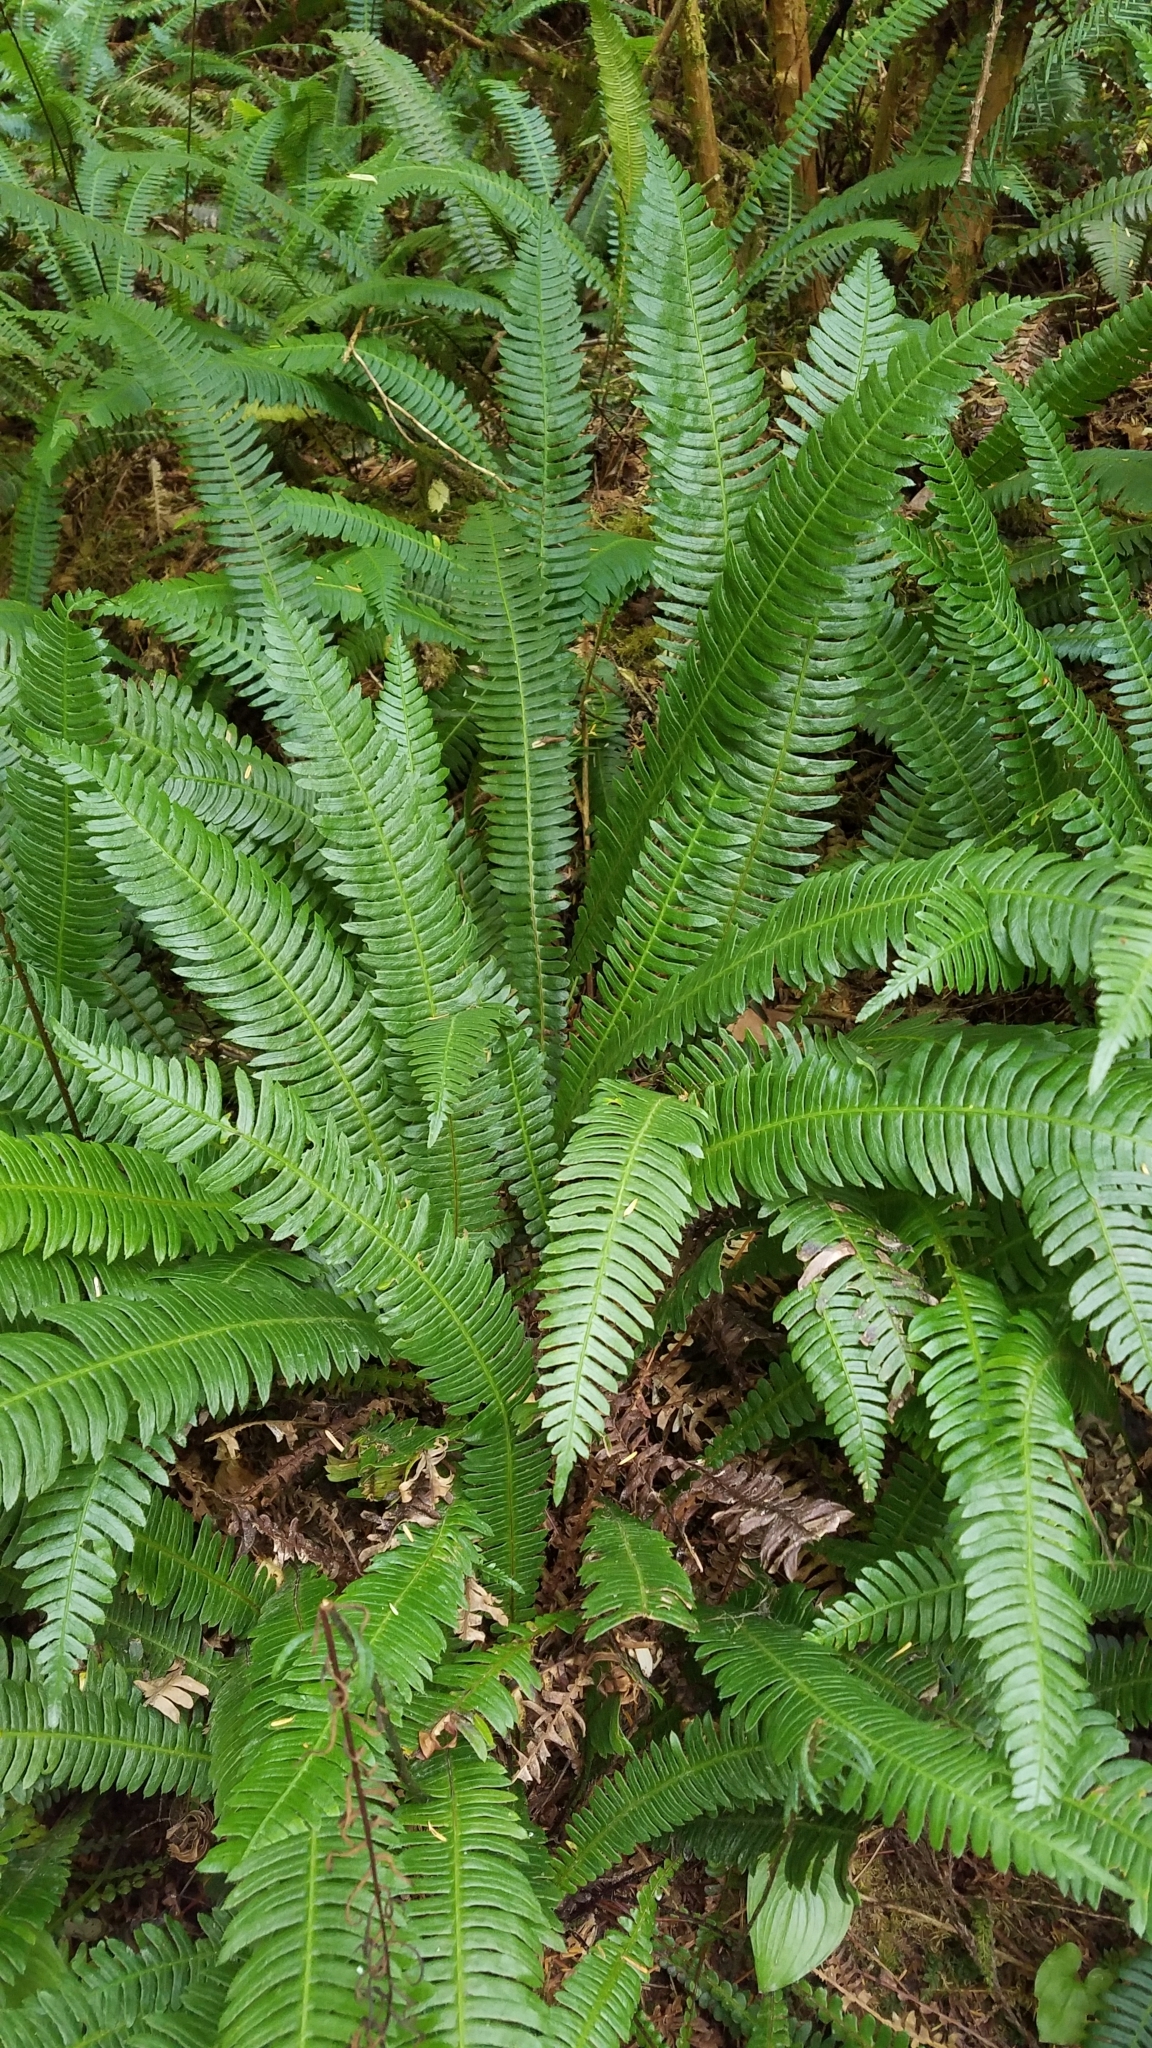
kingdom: Plantae
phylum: Tracheophyta
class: Polypodiopsida
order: Polypodiales
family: Blechnaceae
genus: Struthiopteris
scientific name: Struthiopteris spicant
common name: Deer fern
